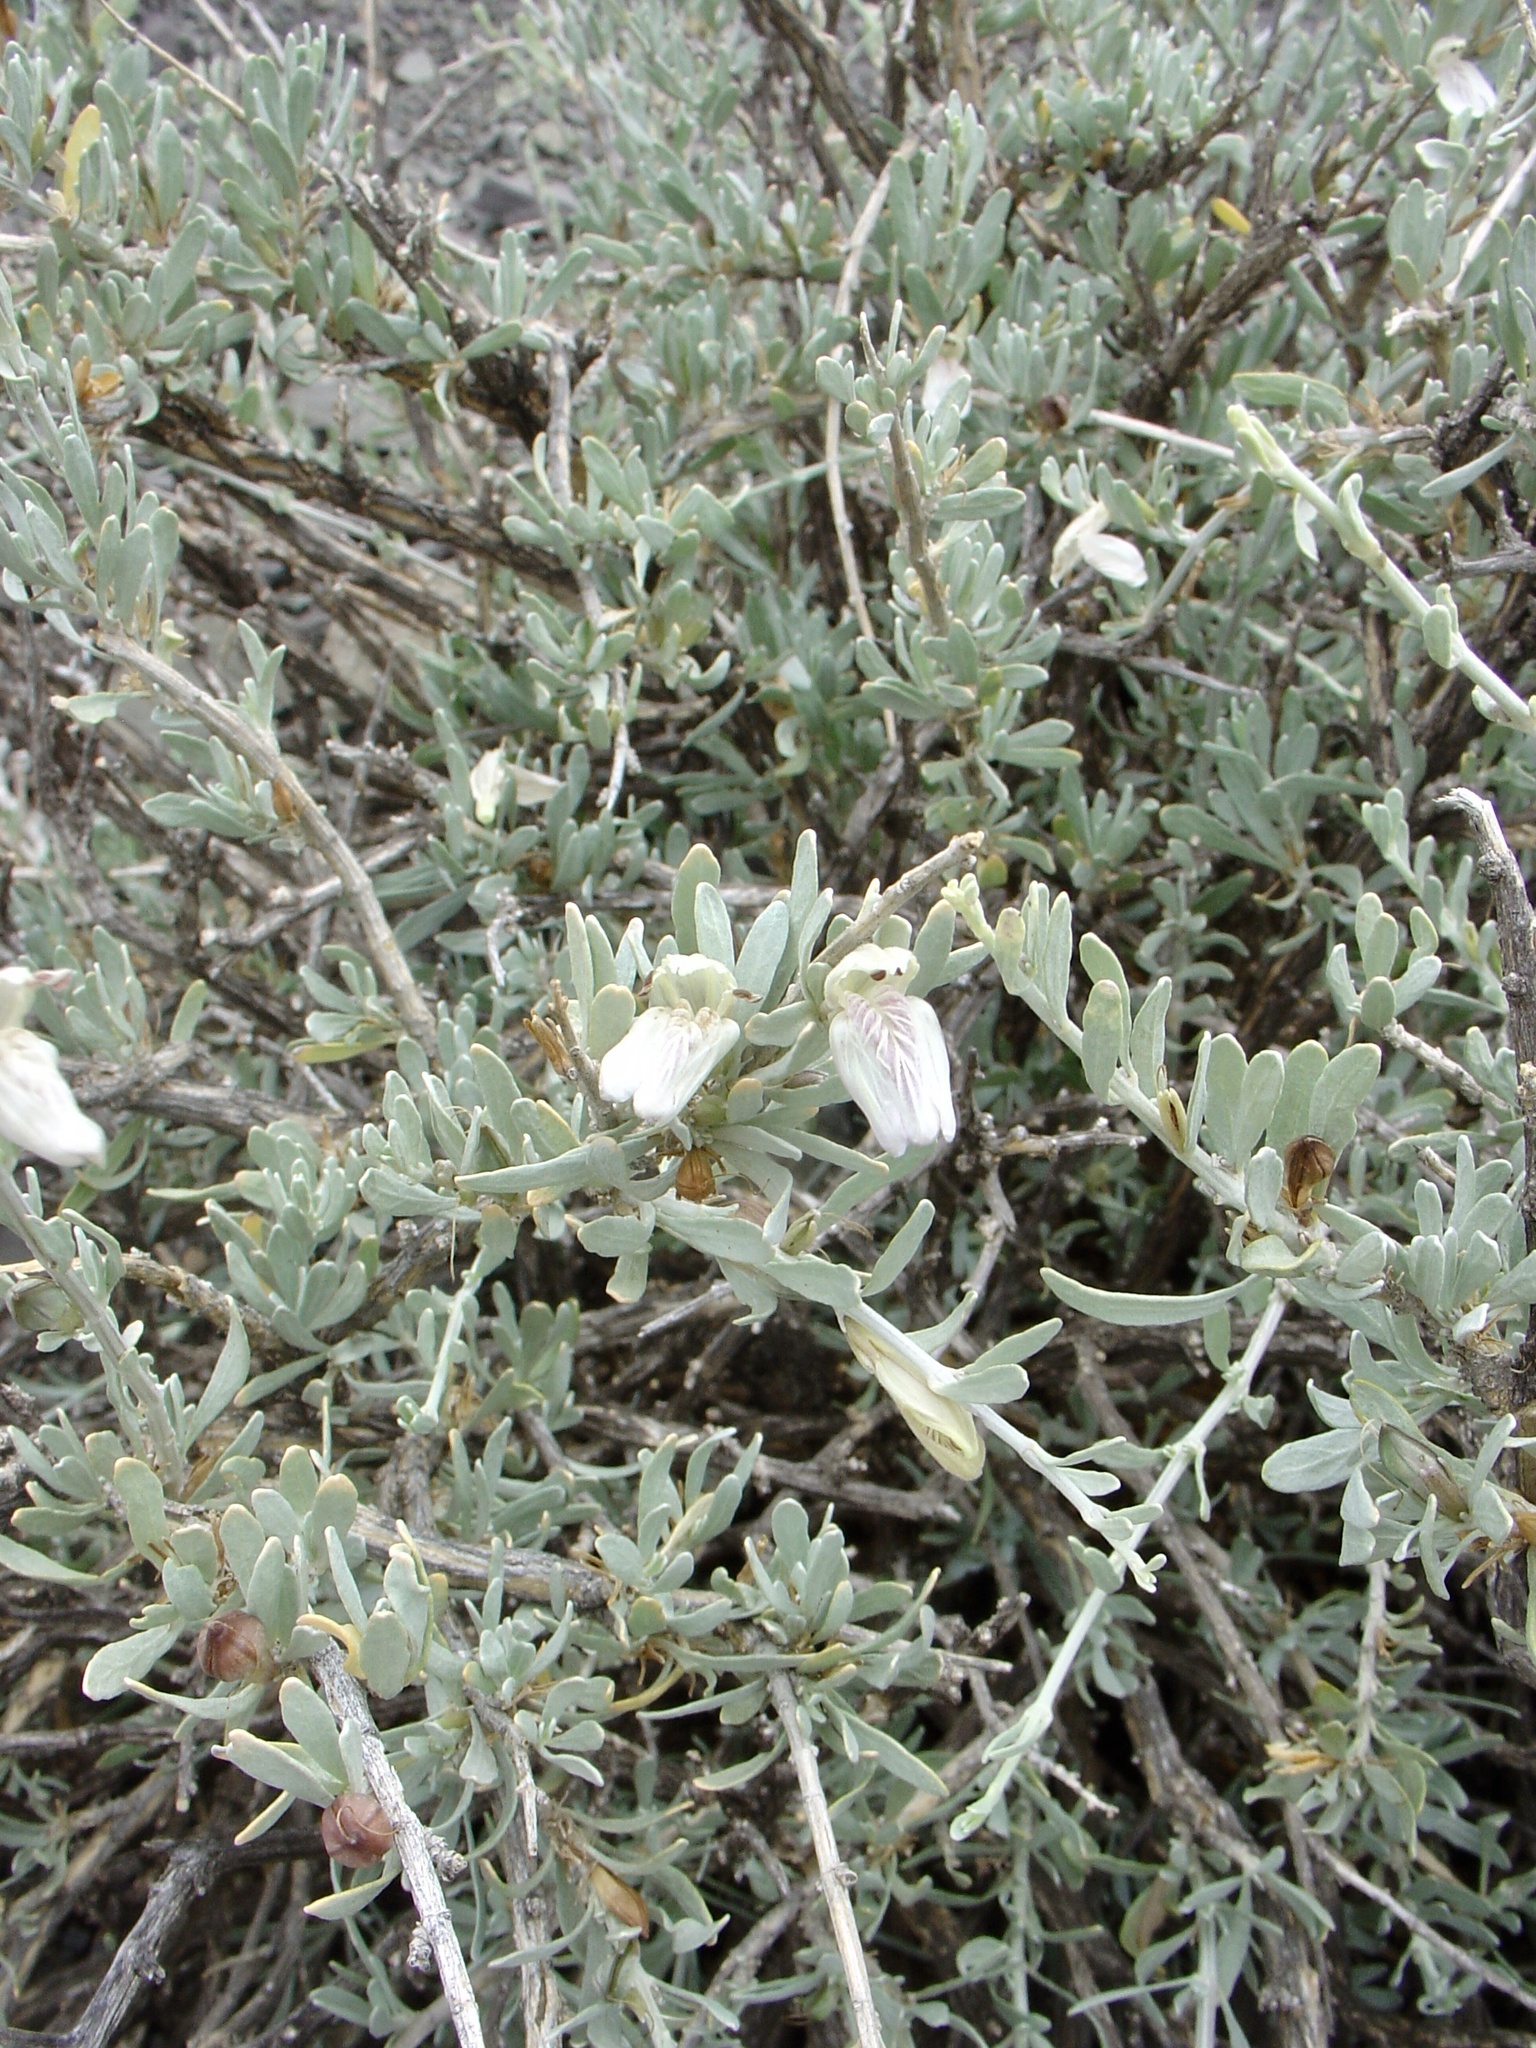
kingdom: Plantae
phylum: Tracheophyta
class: Magnoliopsida
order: Lamiales
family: Acanthaceae
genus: Pogonospermum
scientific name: Pogonospermum
